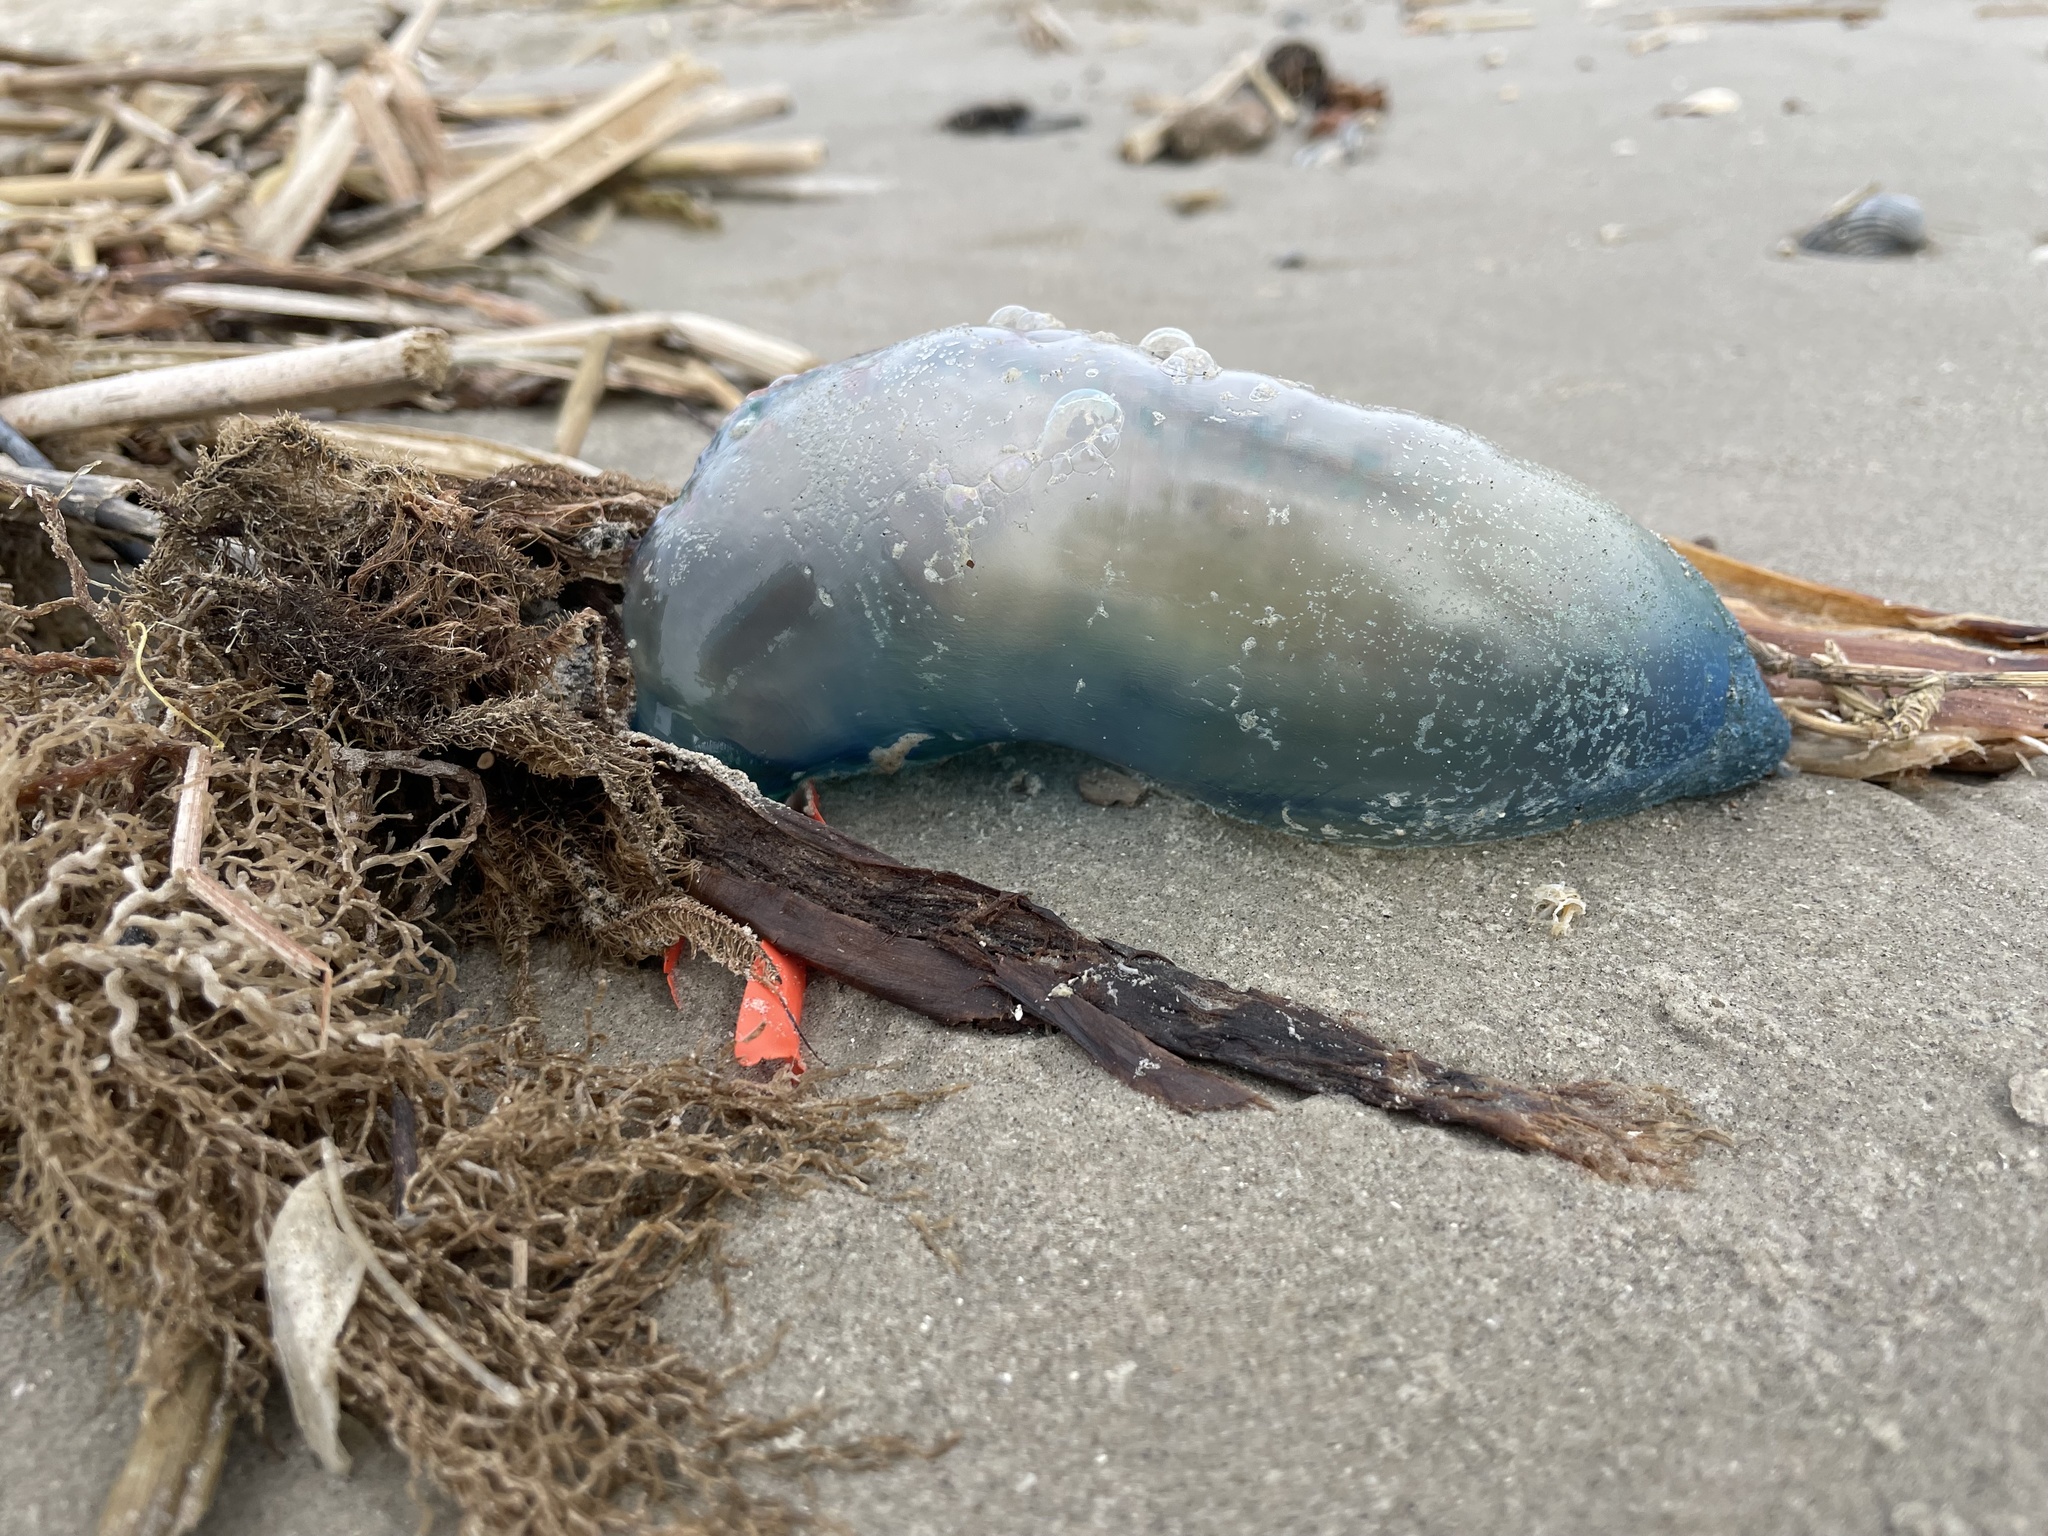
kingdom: Animalia
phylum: Cnidaria
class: Hydrozoa
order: Siphonophorae
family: Physaliidae
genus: Physalia
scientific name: Physalia physalis
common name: Portuguese man-of-war
